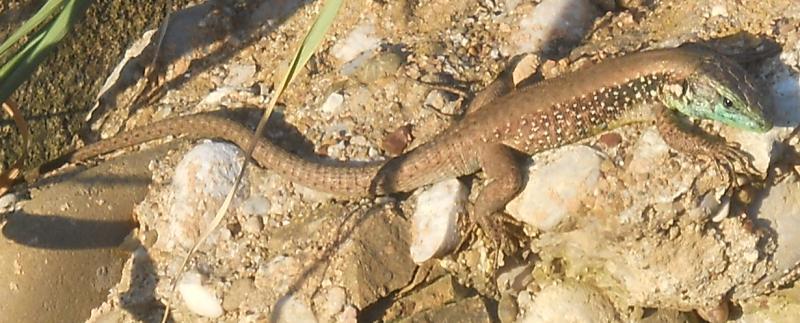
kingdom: Animalia
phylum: Chordata
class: Squamata
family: Lacertidae
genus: Phoenicolacerta
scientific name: Phoenicolacerta laevis
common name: Lebanon lizard
